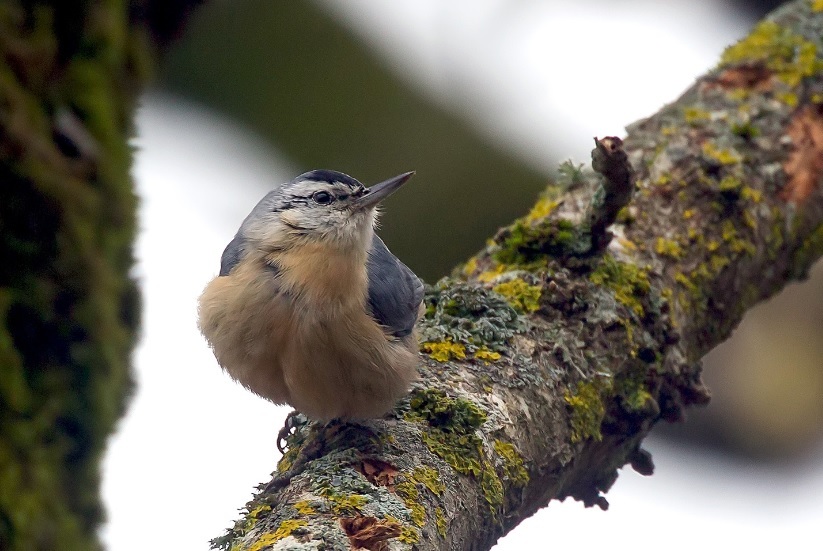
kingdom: Animalia
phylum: Chordata
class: Aves
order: Passeriformes
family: Sittidae
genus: Sitta
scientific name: Sitta ledanti
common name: Algerian nuthatch
